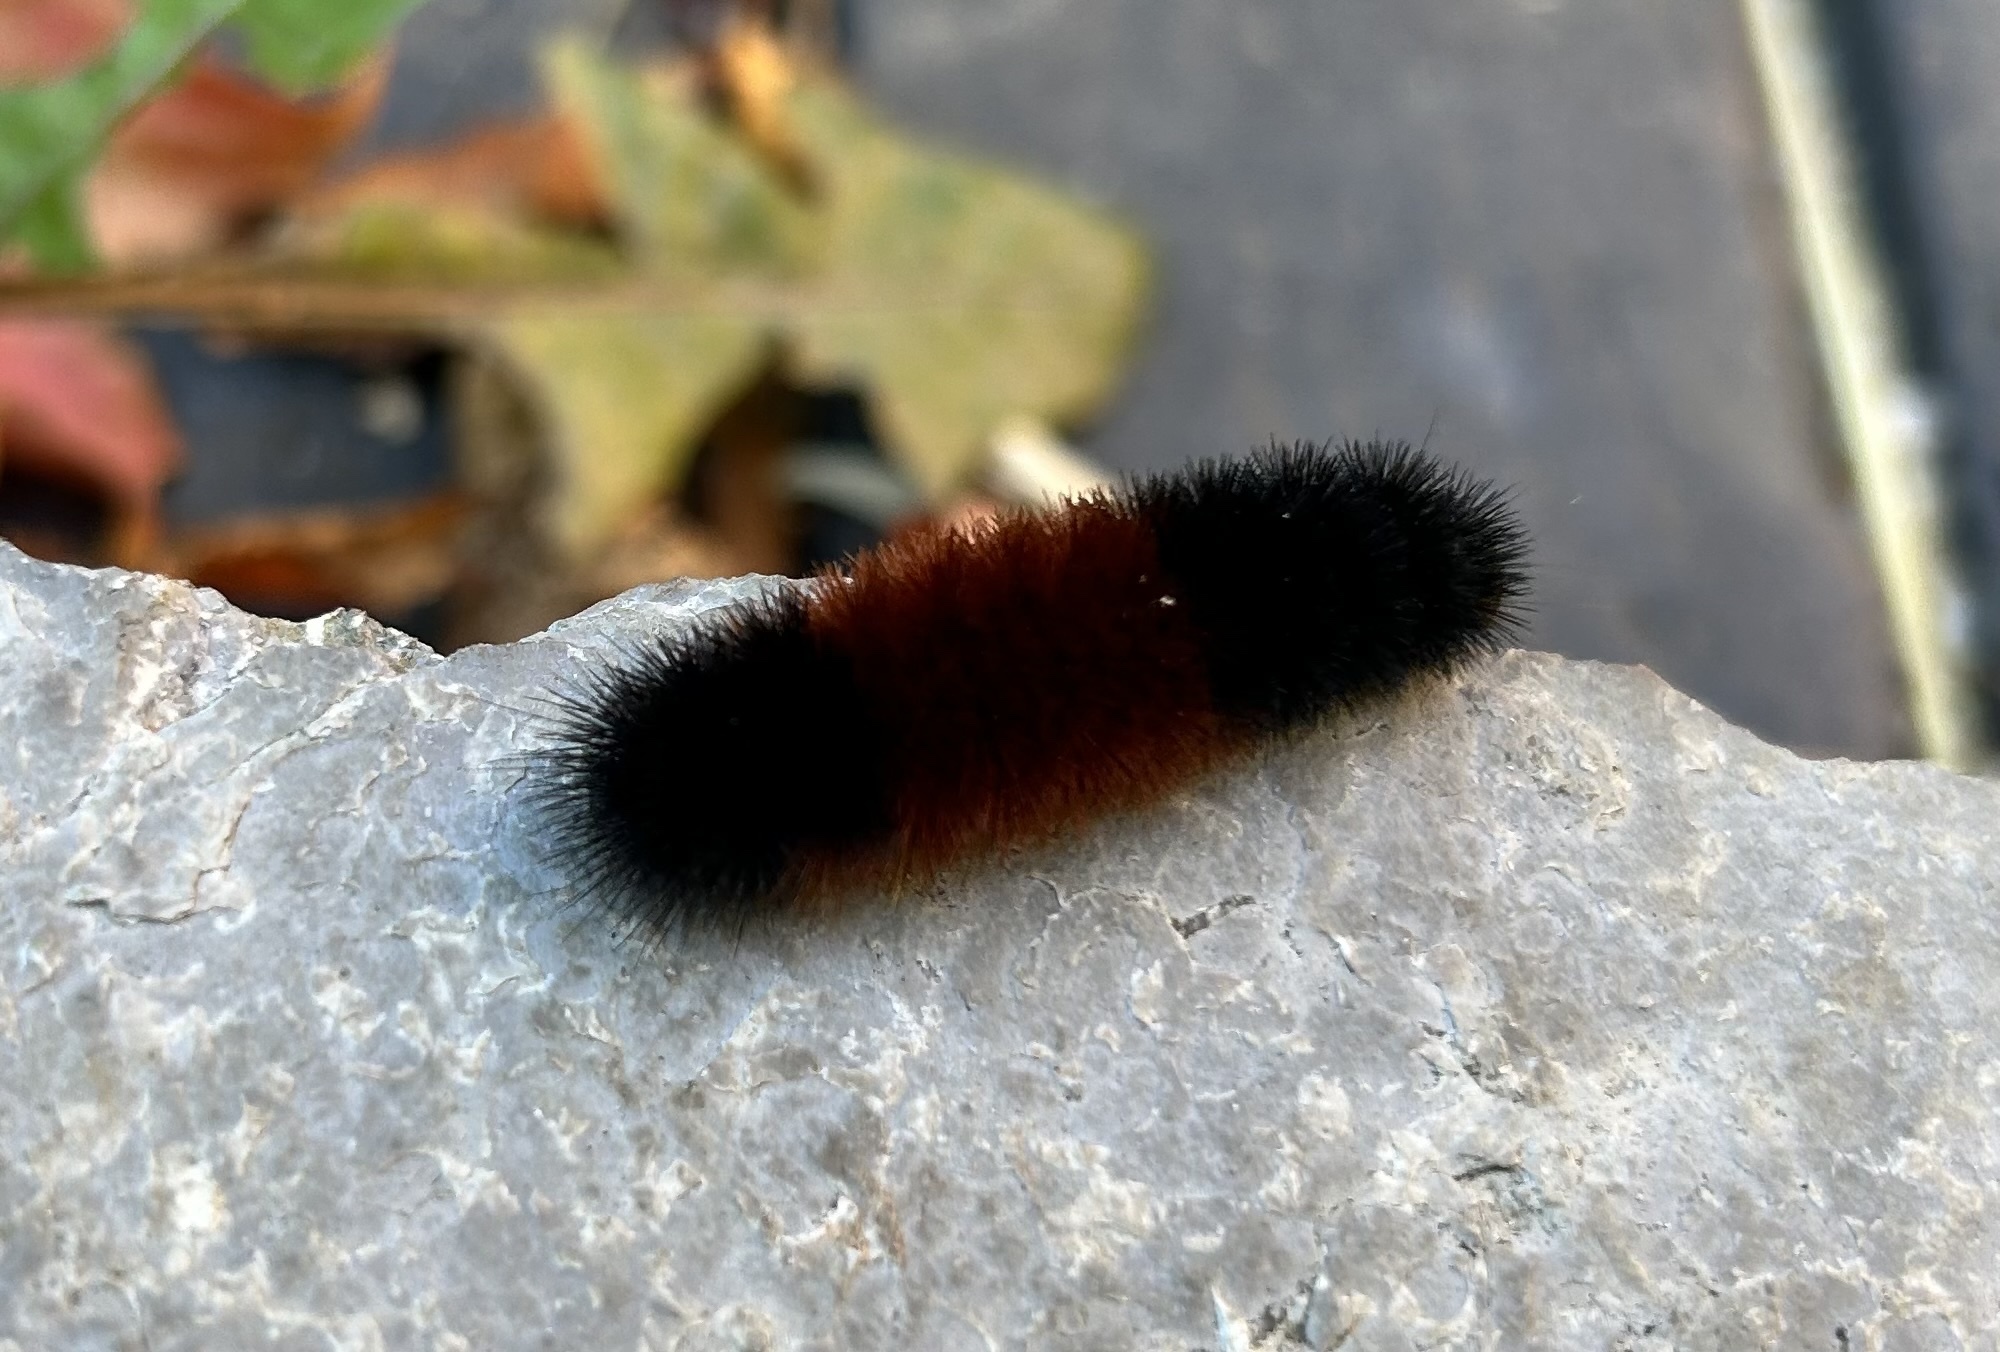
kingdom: Animalia
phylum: Arthropoda
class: Insecta
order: Lepidoptera
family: Erebidae
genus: Pyrrharctia
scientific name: Pyrrharctia isabella
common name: Isabella tiger moth
